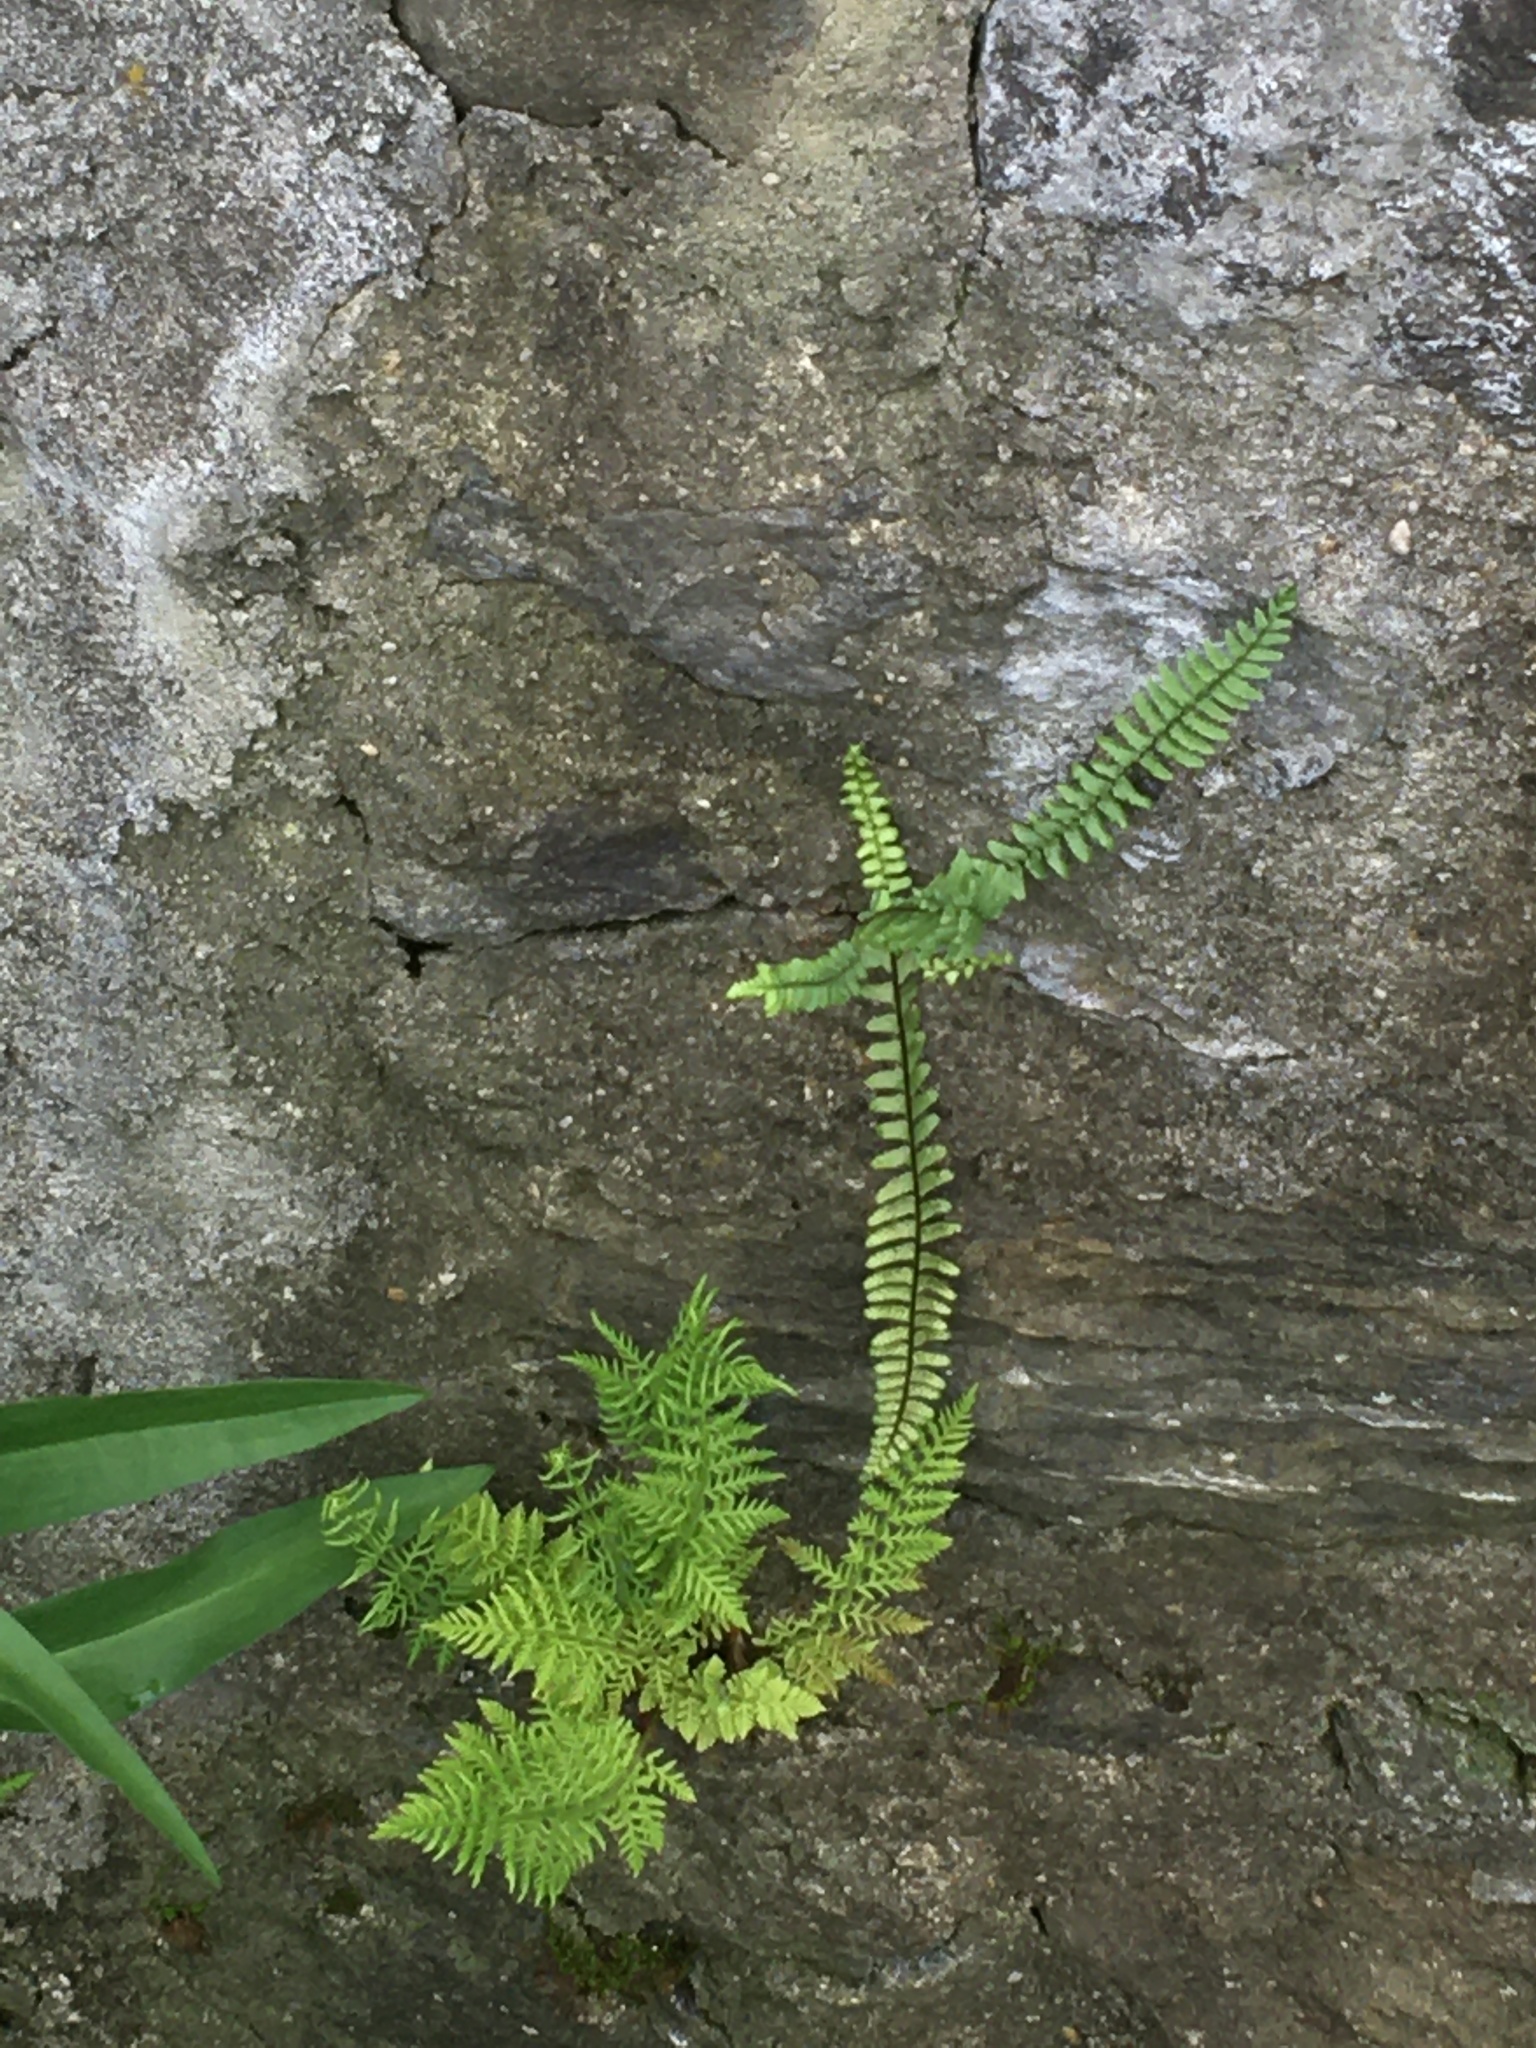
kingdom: Plantae
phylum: Tracheophyta
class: Polypodiopsida
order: Polypodiales
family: Aspleniaceae
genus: Asplenium
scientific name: Asplenium platyneuron
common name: Ebony spleenwort
